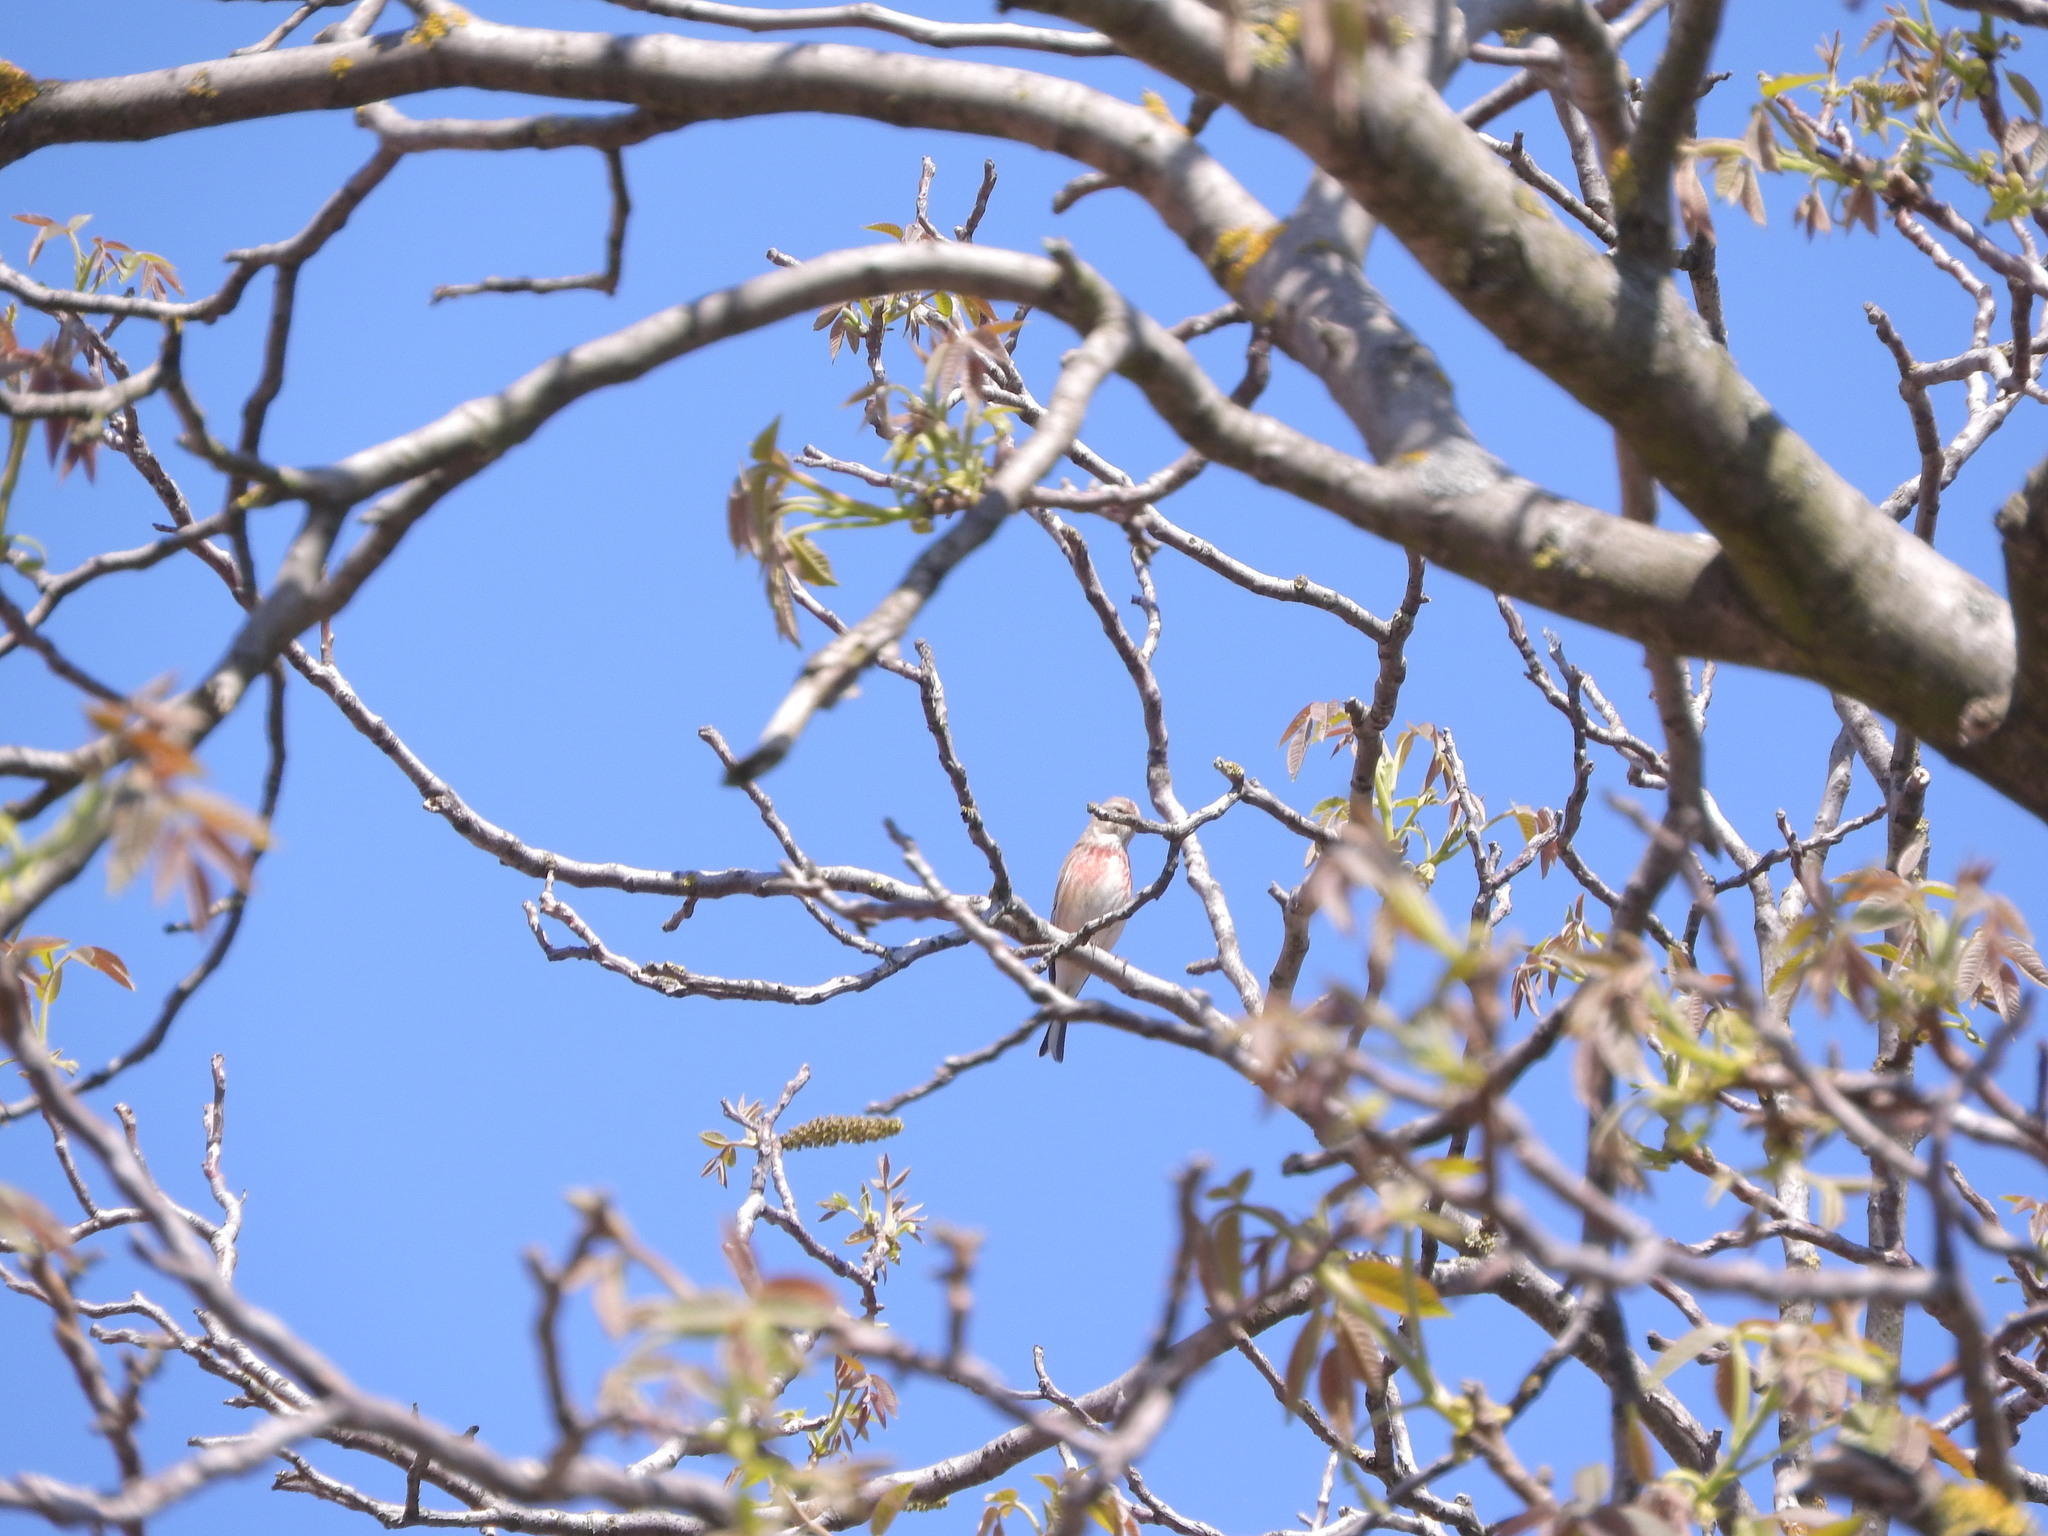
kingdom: Animalia
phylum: Chordata
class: Aves
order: Passeriformes
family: Fringillidae
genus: Linaria
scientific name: Linaria cannabina
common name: Common linnet
